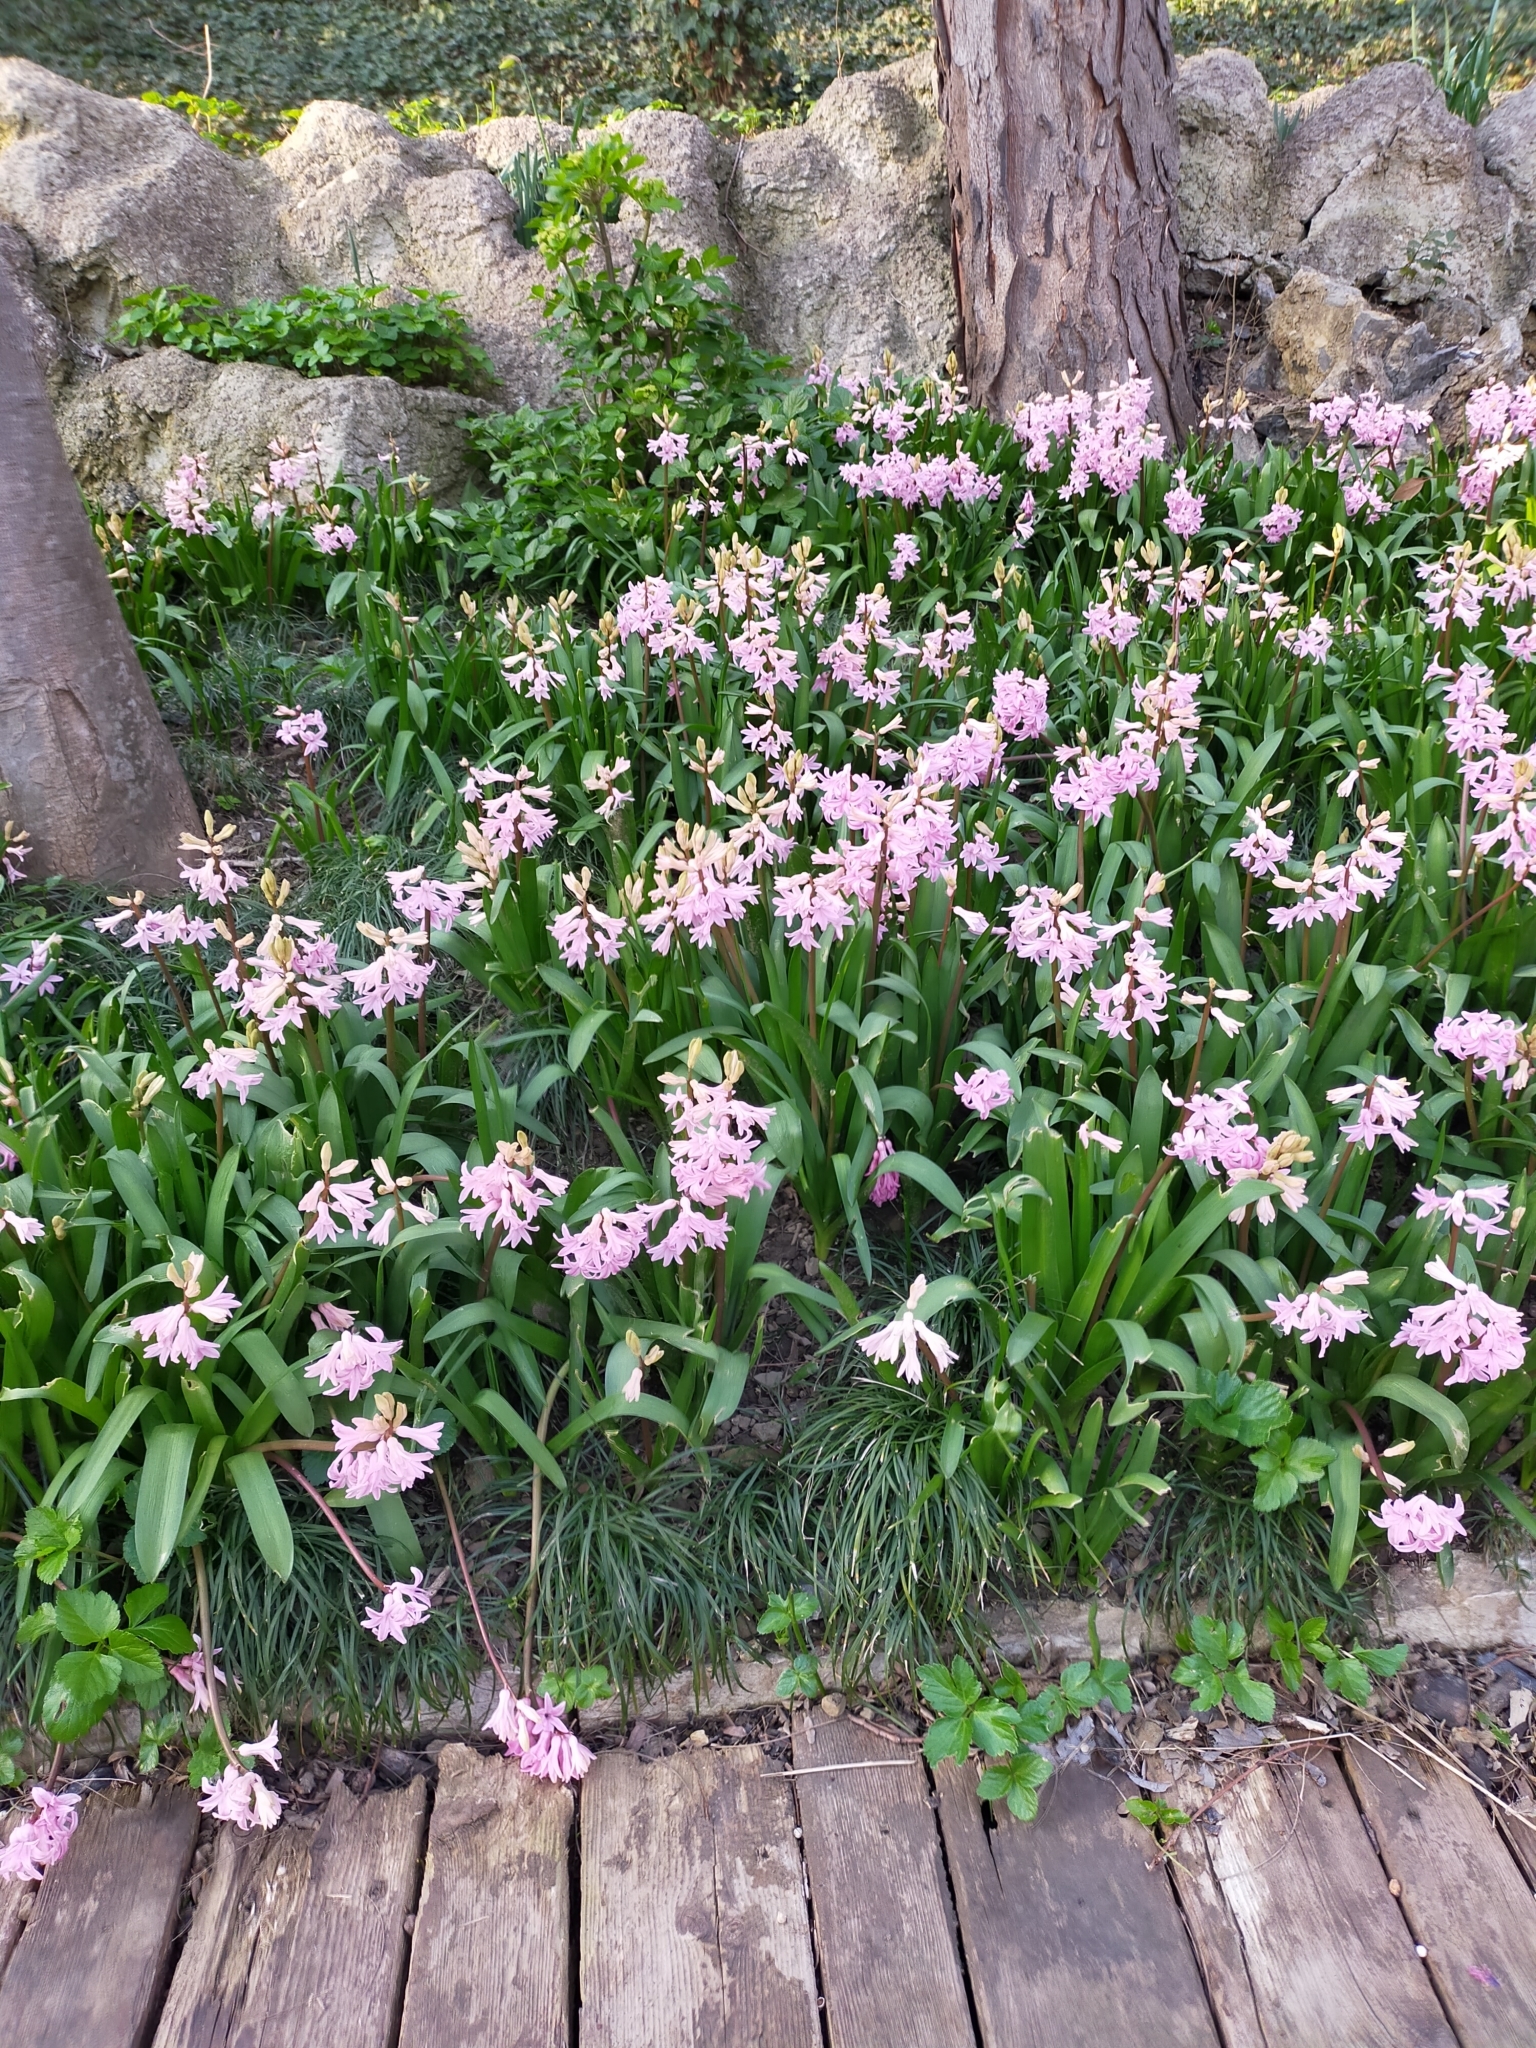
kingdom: Plantae
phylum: Tracheophyta
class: Liliopsida
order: Asparagales
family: Asparagaceae
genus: Hyacinthus
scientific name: Hyacinthus orientalis
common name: Hyacinth
